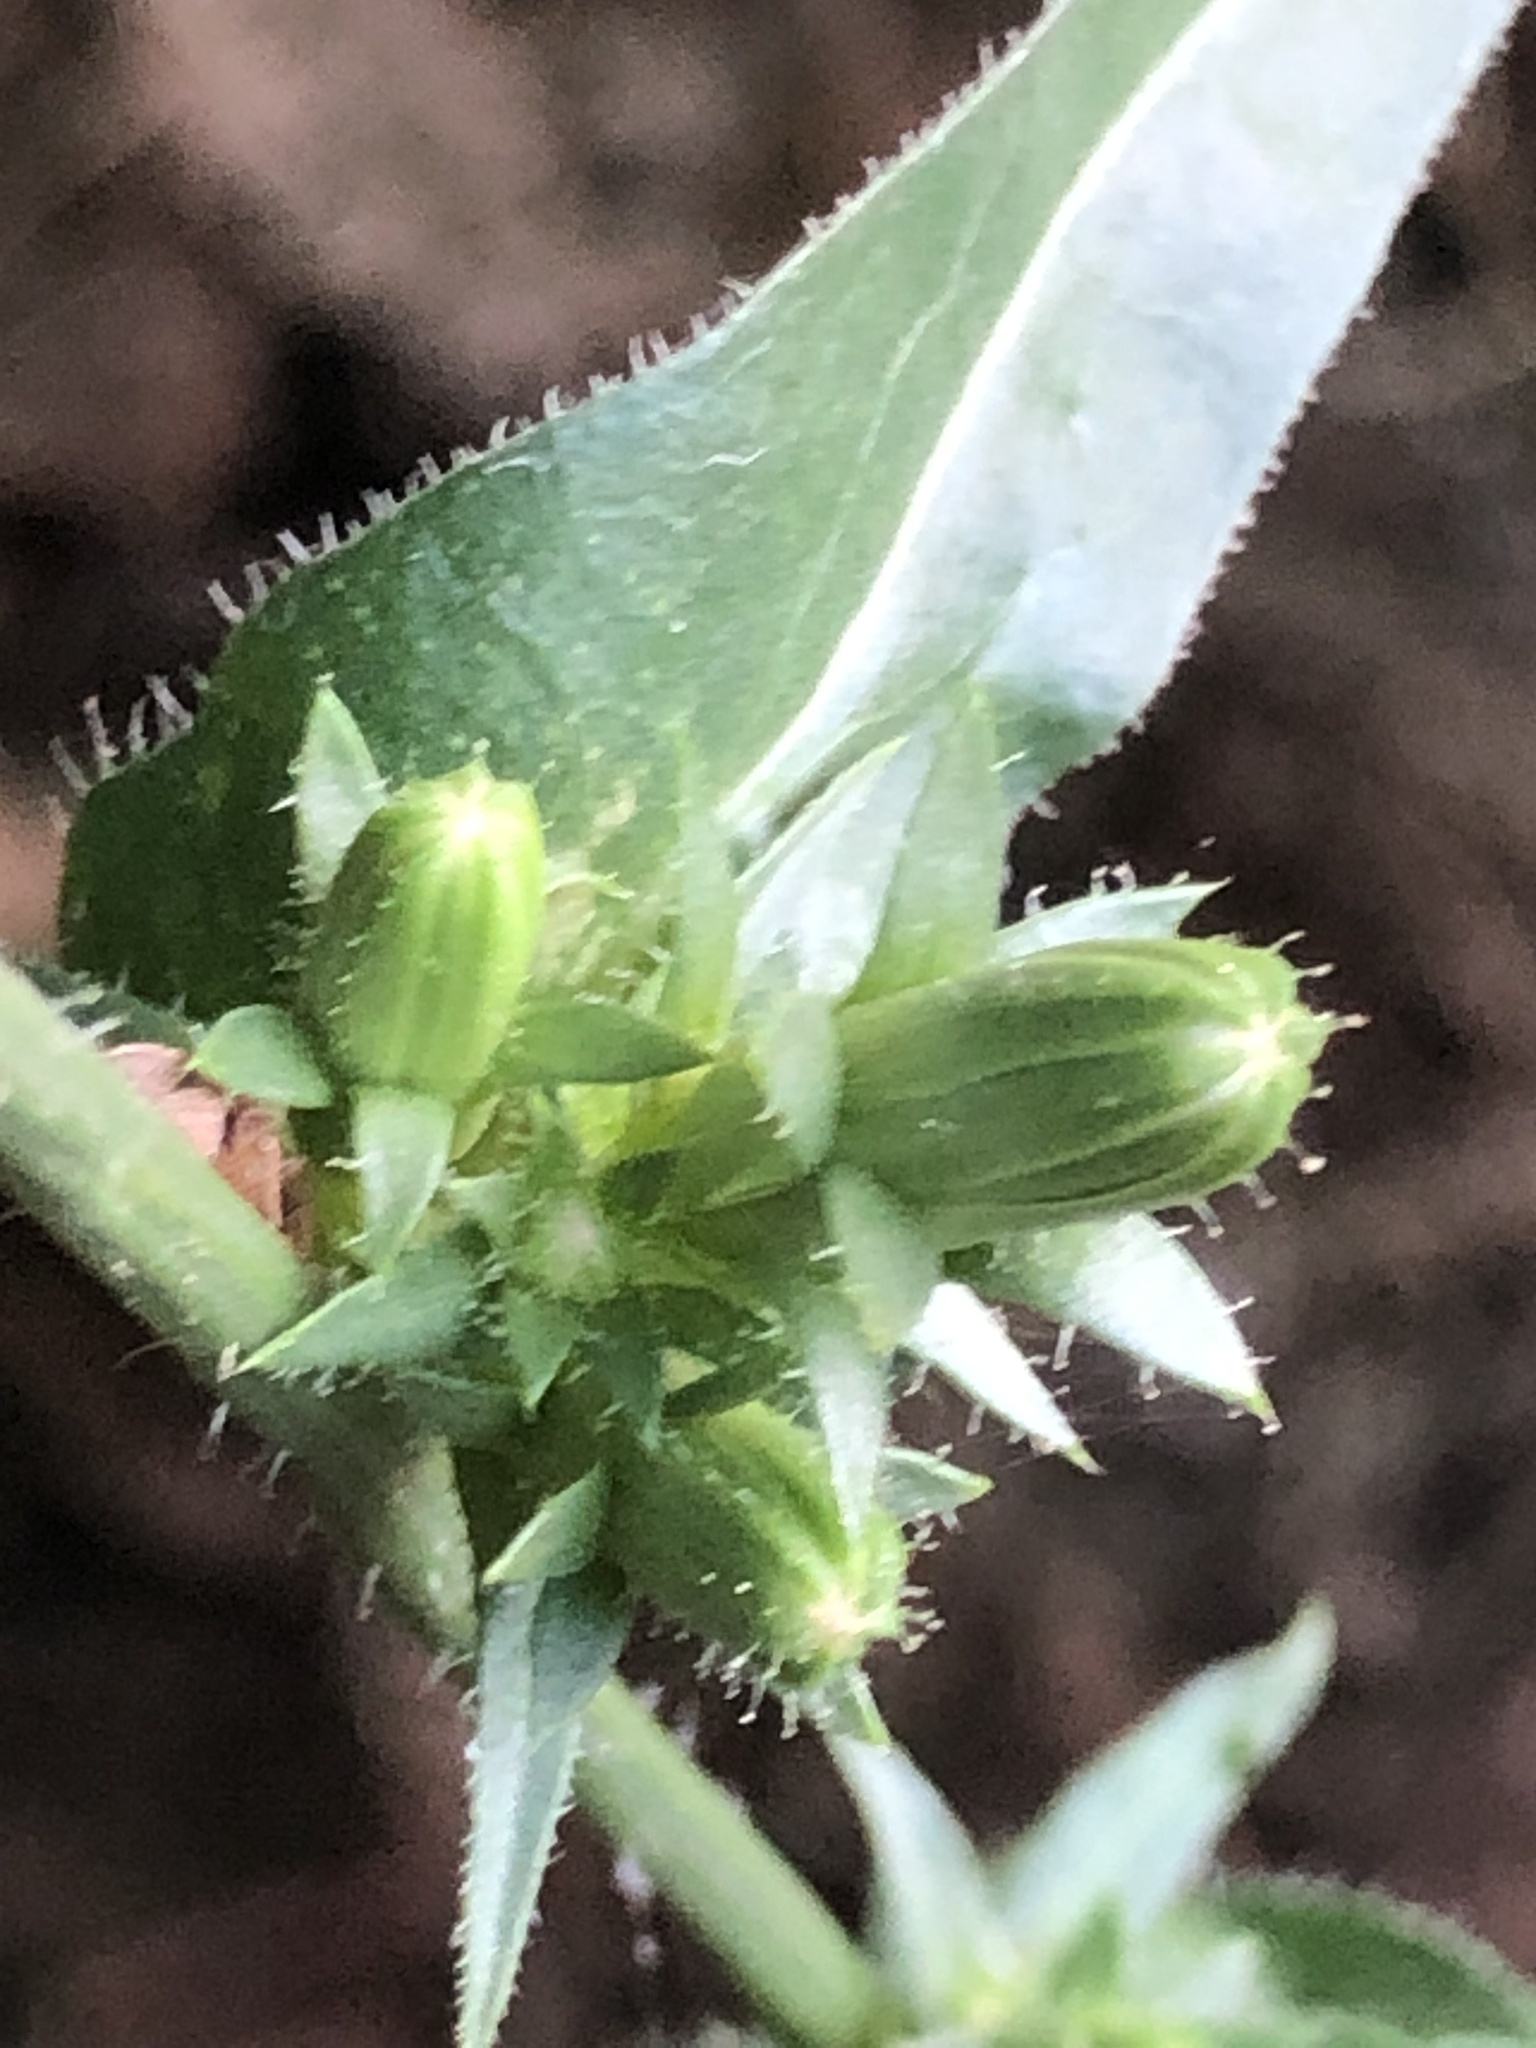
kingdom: Plantae
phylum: Tracheophyta
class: Magnoliopsida
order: Asterales
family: Asteraceae
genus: Cichorium
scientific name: Cichorium intybus
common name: Chicory
